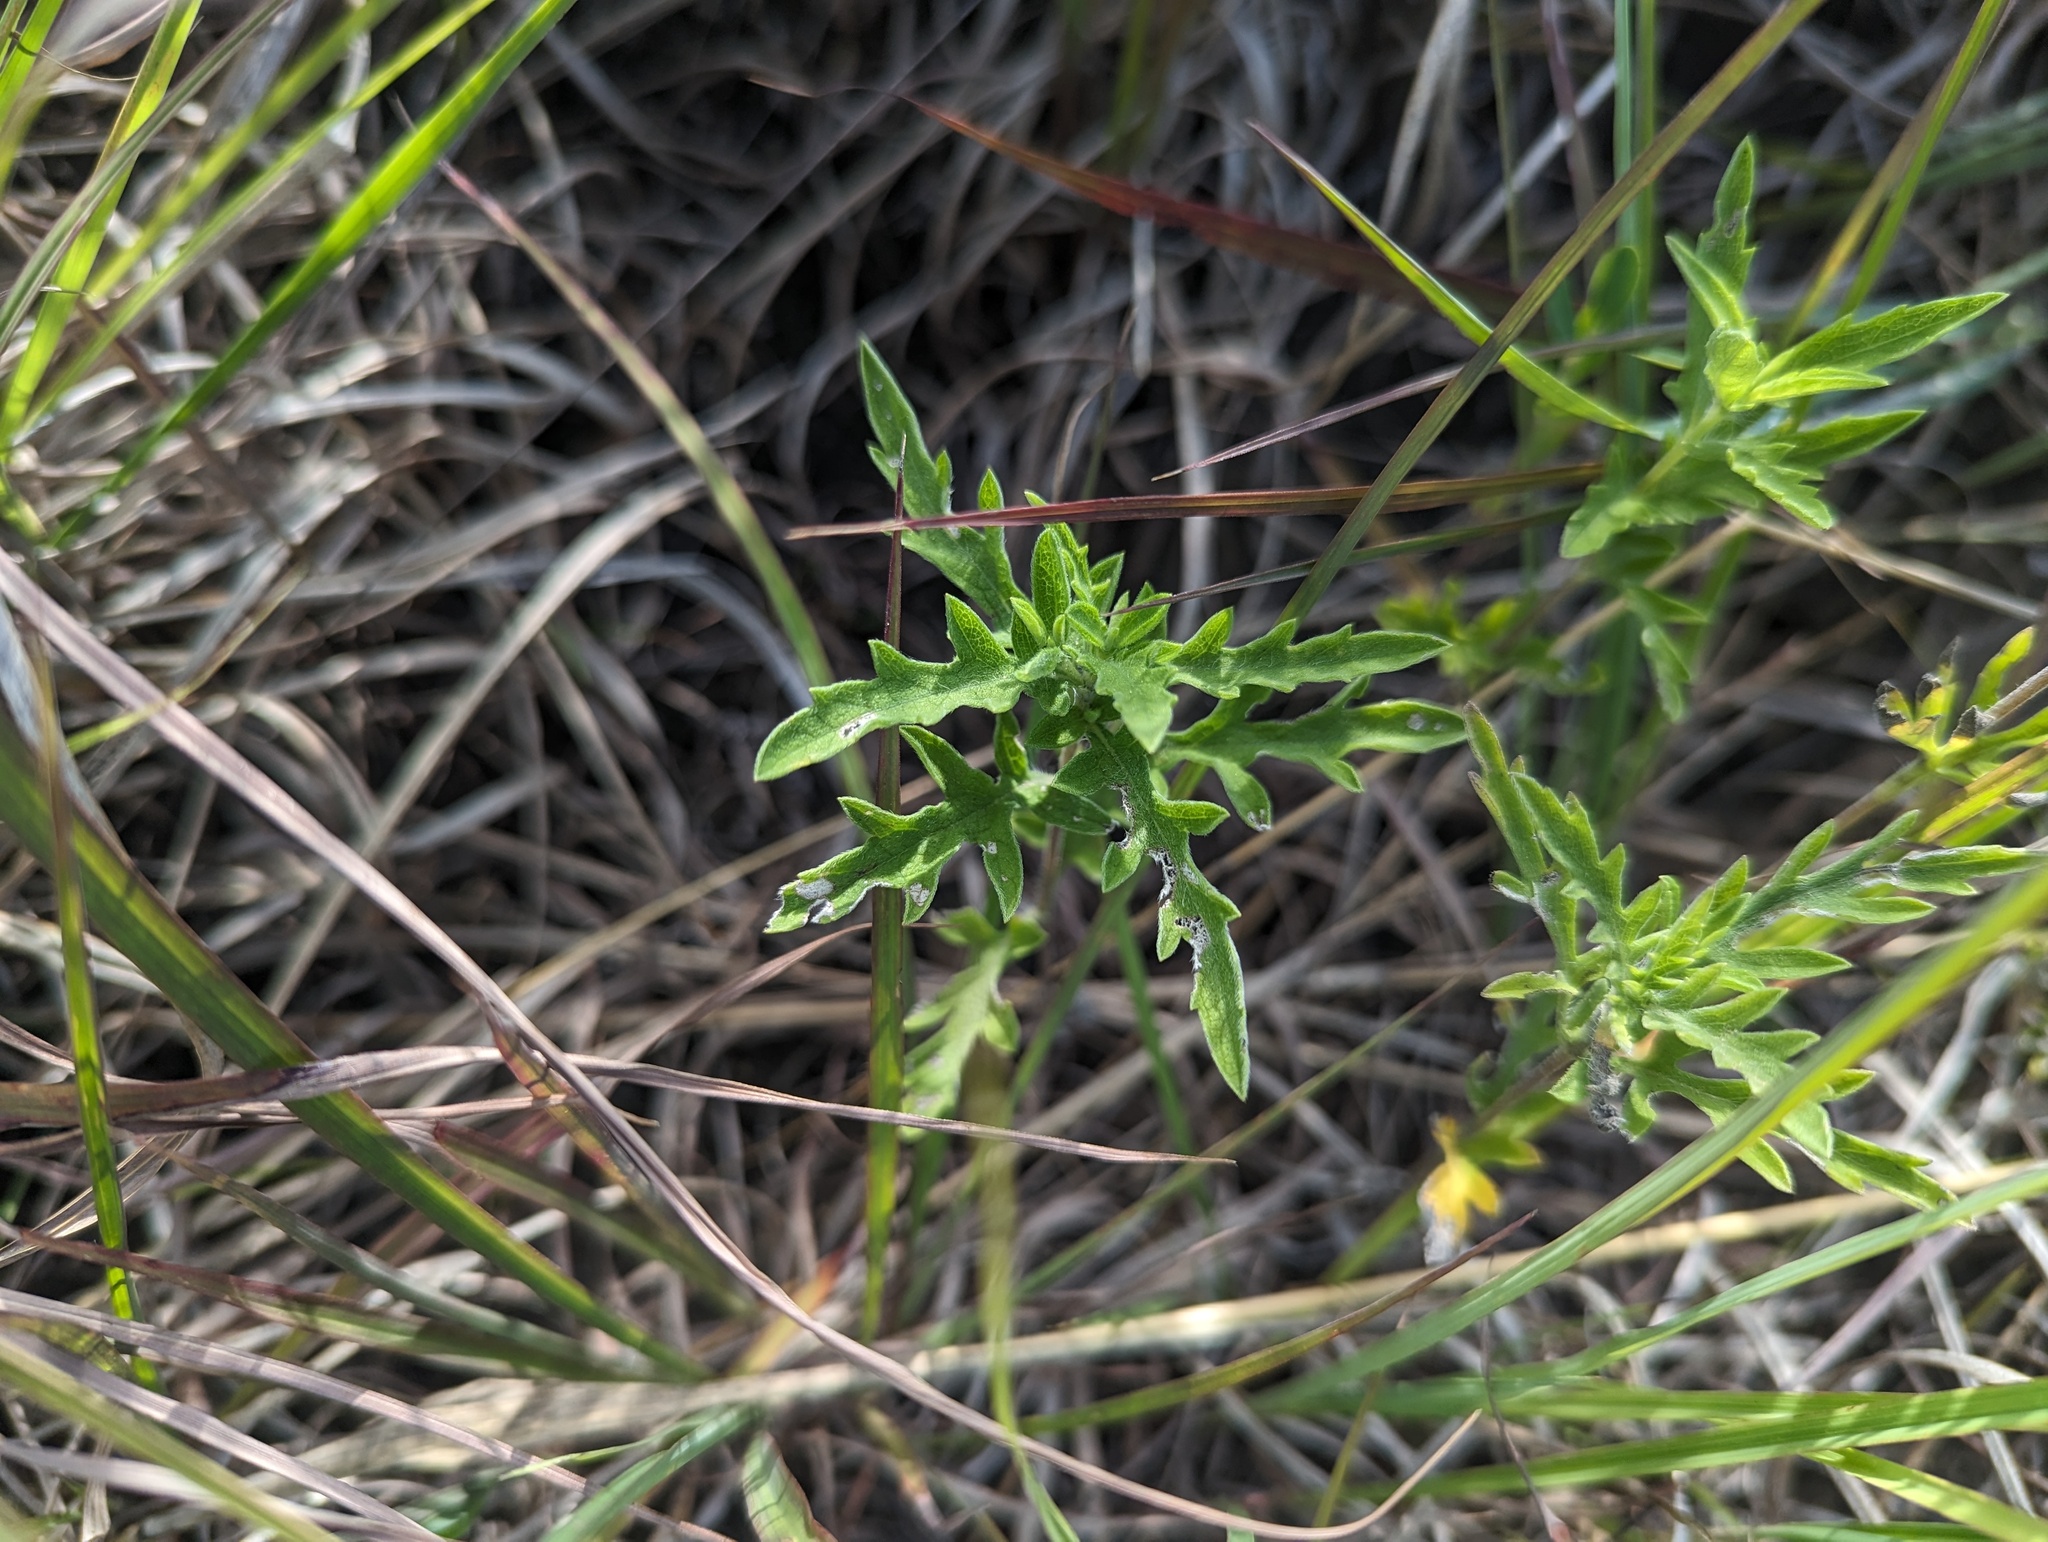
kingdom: Plantae
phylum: Tracheophyta
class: Magnoliopsida
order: Asterales
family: Asteraceae
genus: Ambrosia
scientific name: Ambrosia psilostachya
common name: Perennial ragweed
